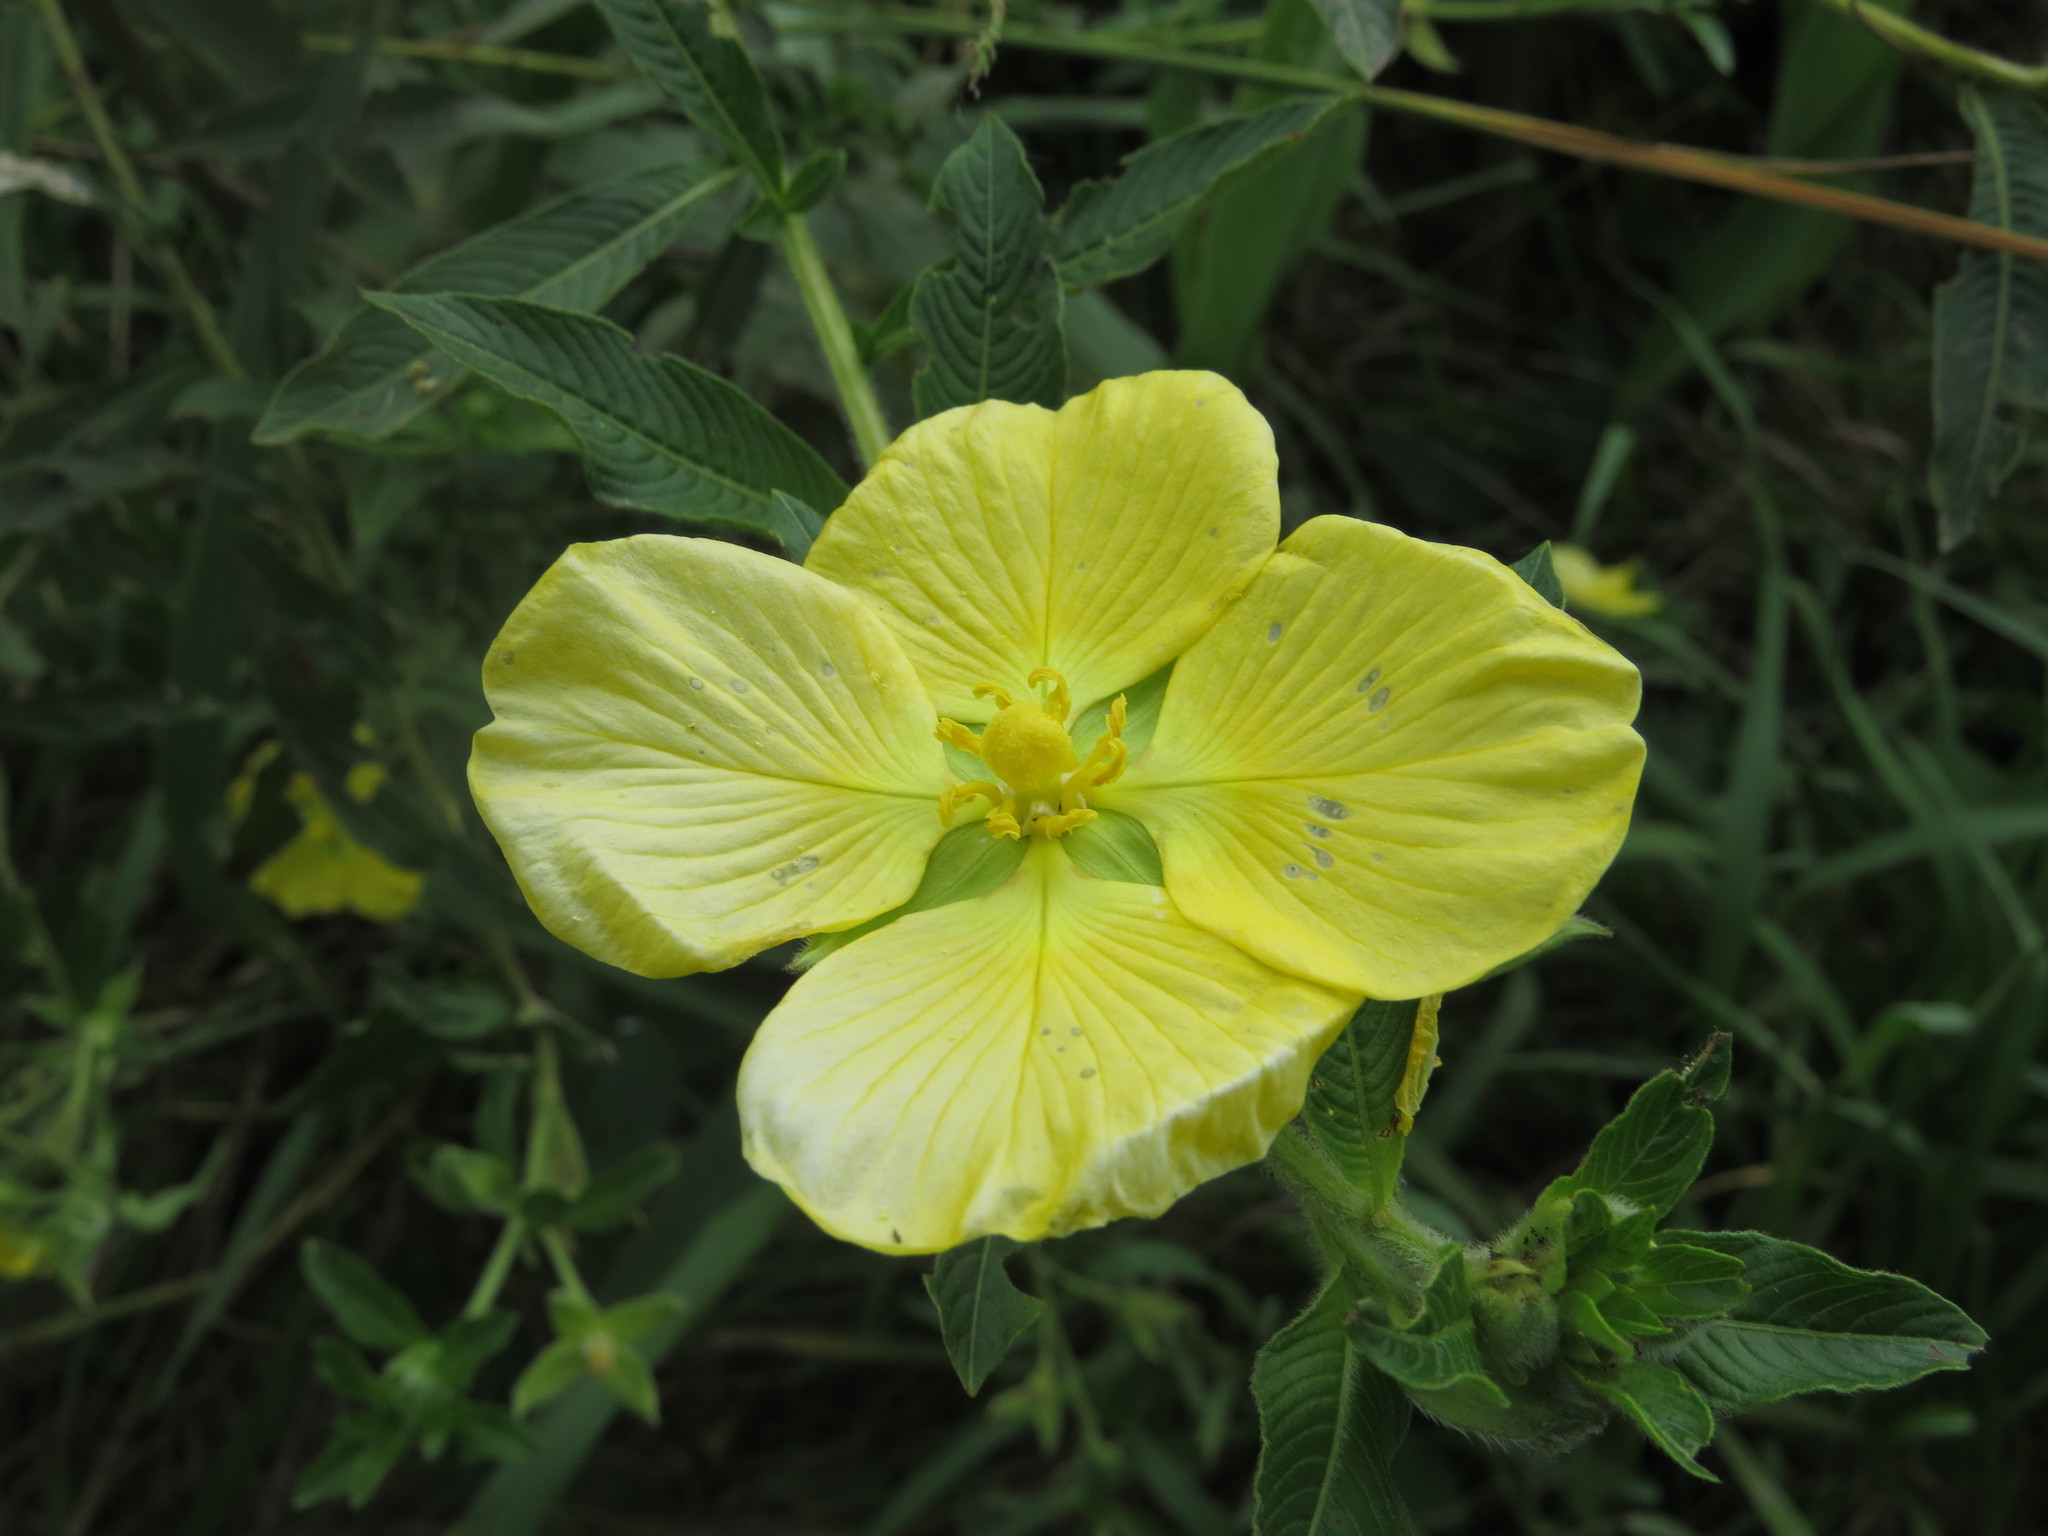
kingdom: Plantae
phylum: Tracheophyta
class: Magnoliopsida
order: Myrtales
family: Onagraceae
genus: Ludwigia
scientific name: Ludwigia elegans
